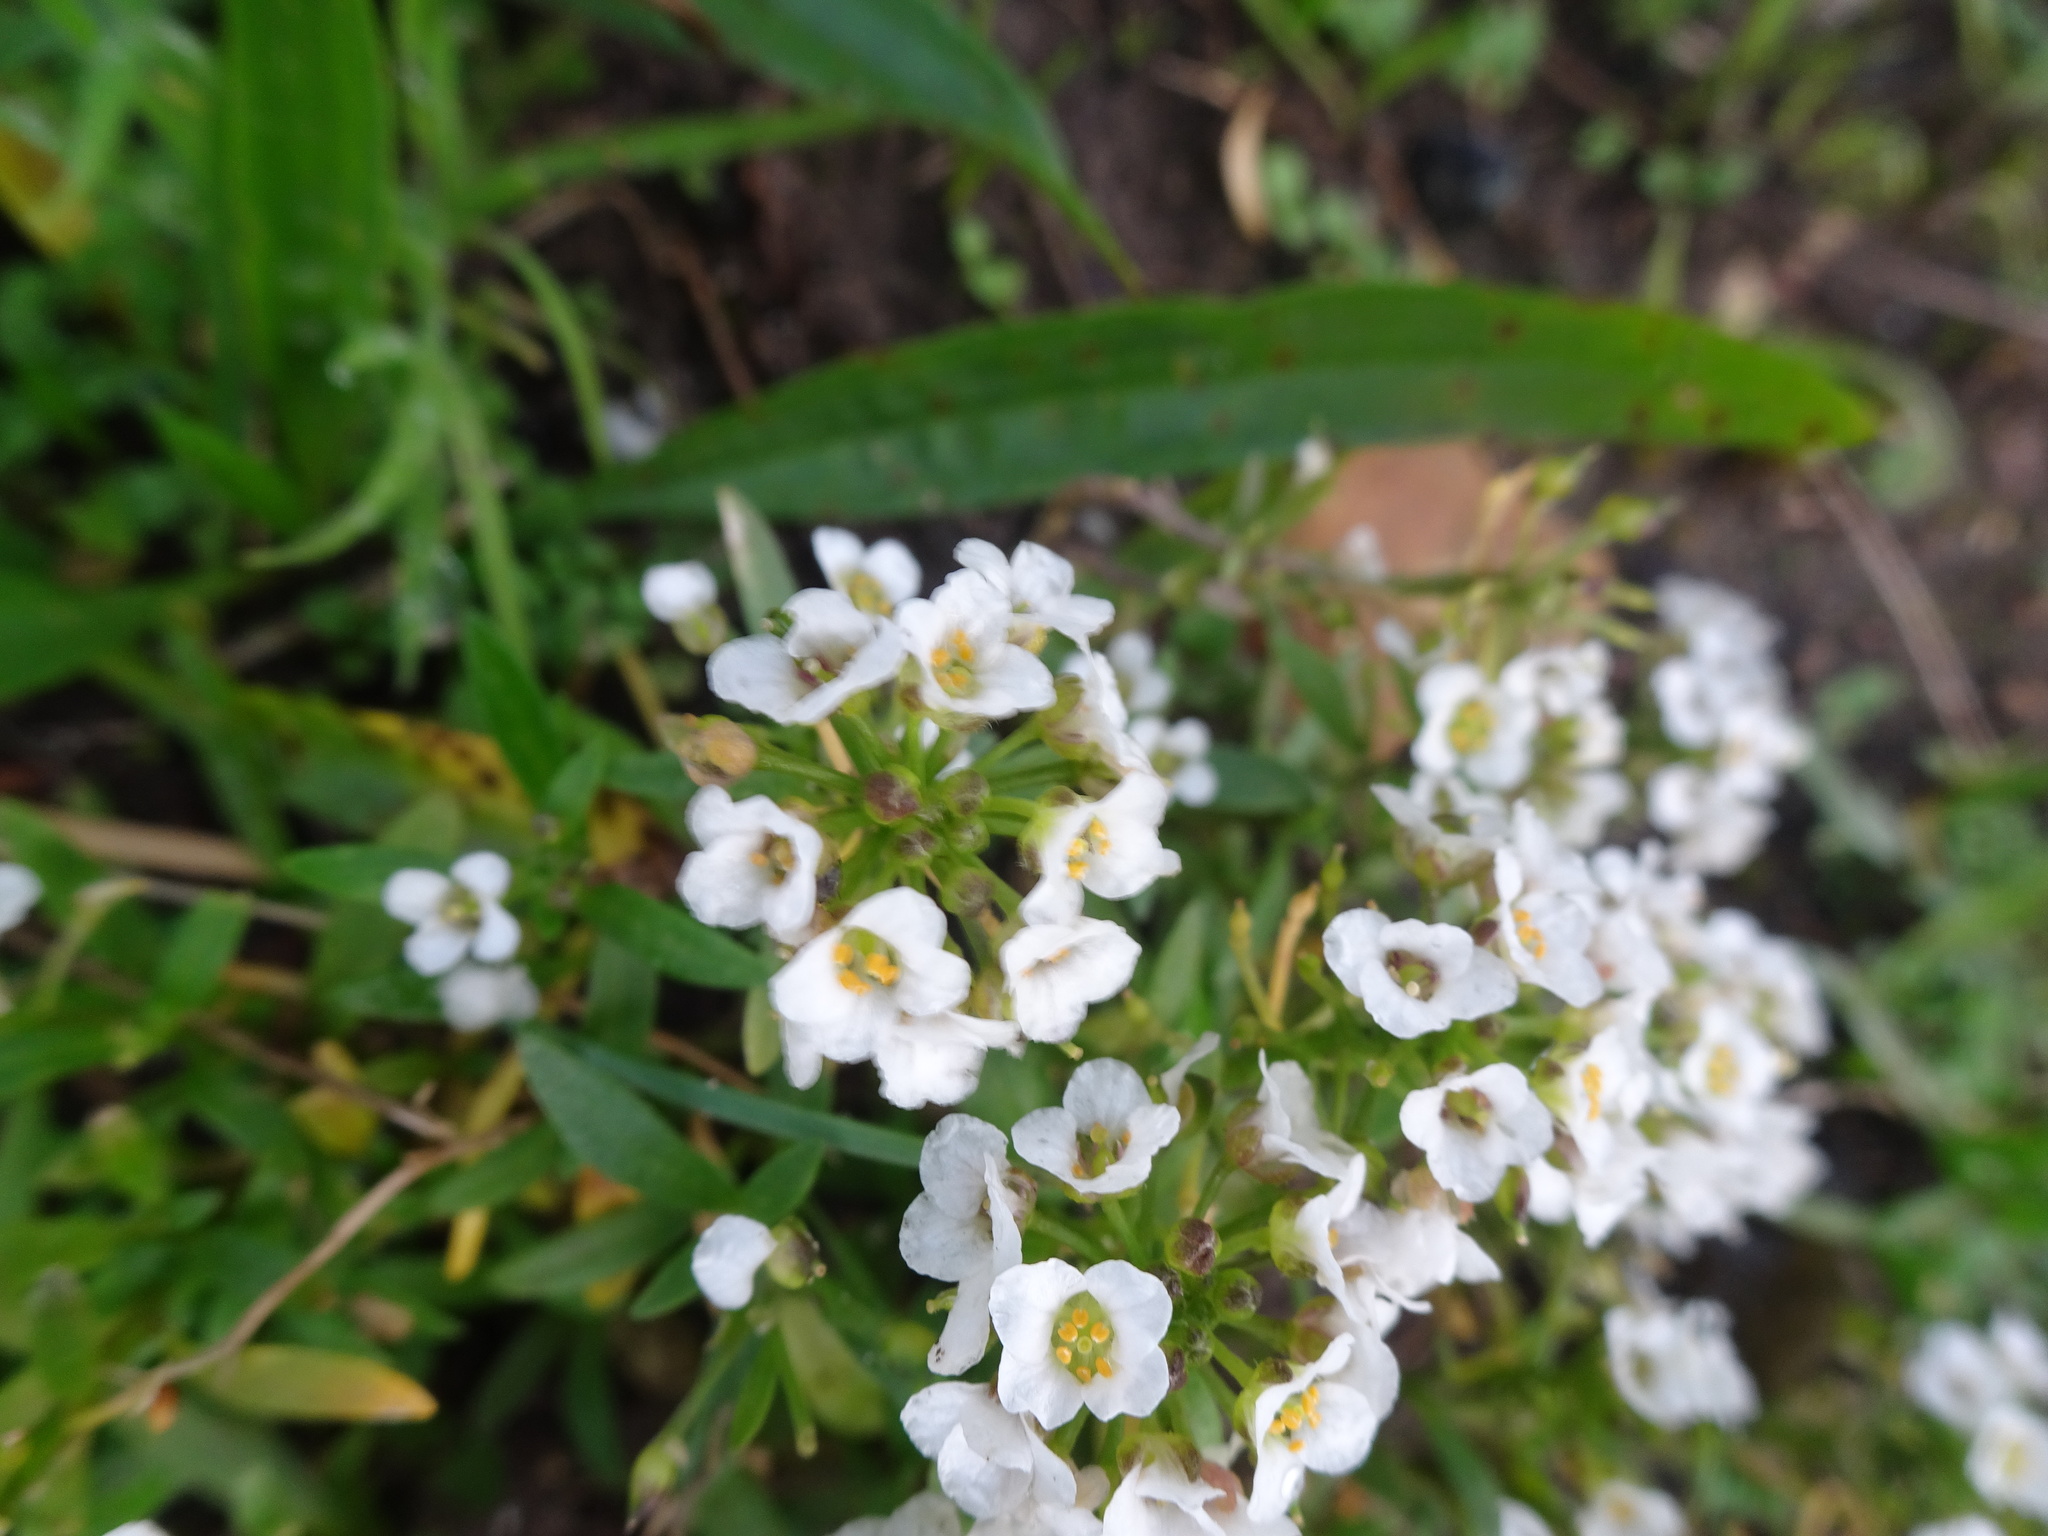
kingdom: Plantae
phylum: Tracheophyta
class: Magnoliopsida
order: Brassicales
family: Brassicaceae
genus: Lobularia
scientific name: Lobularia maritima
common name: Sweet alison
